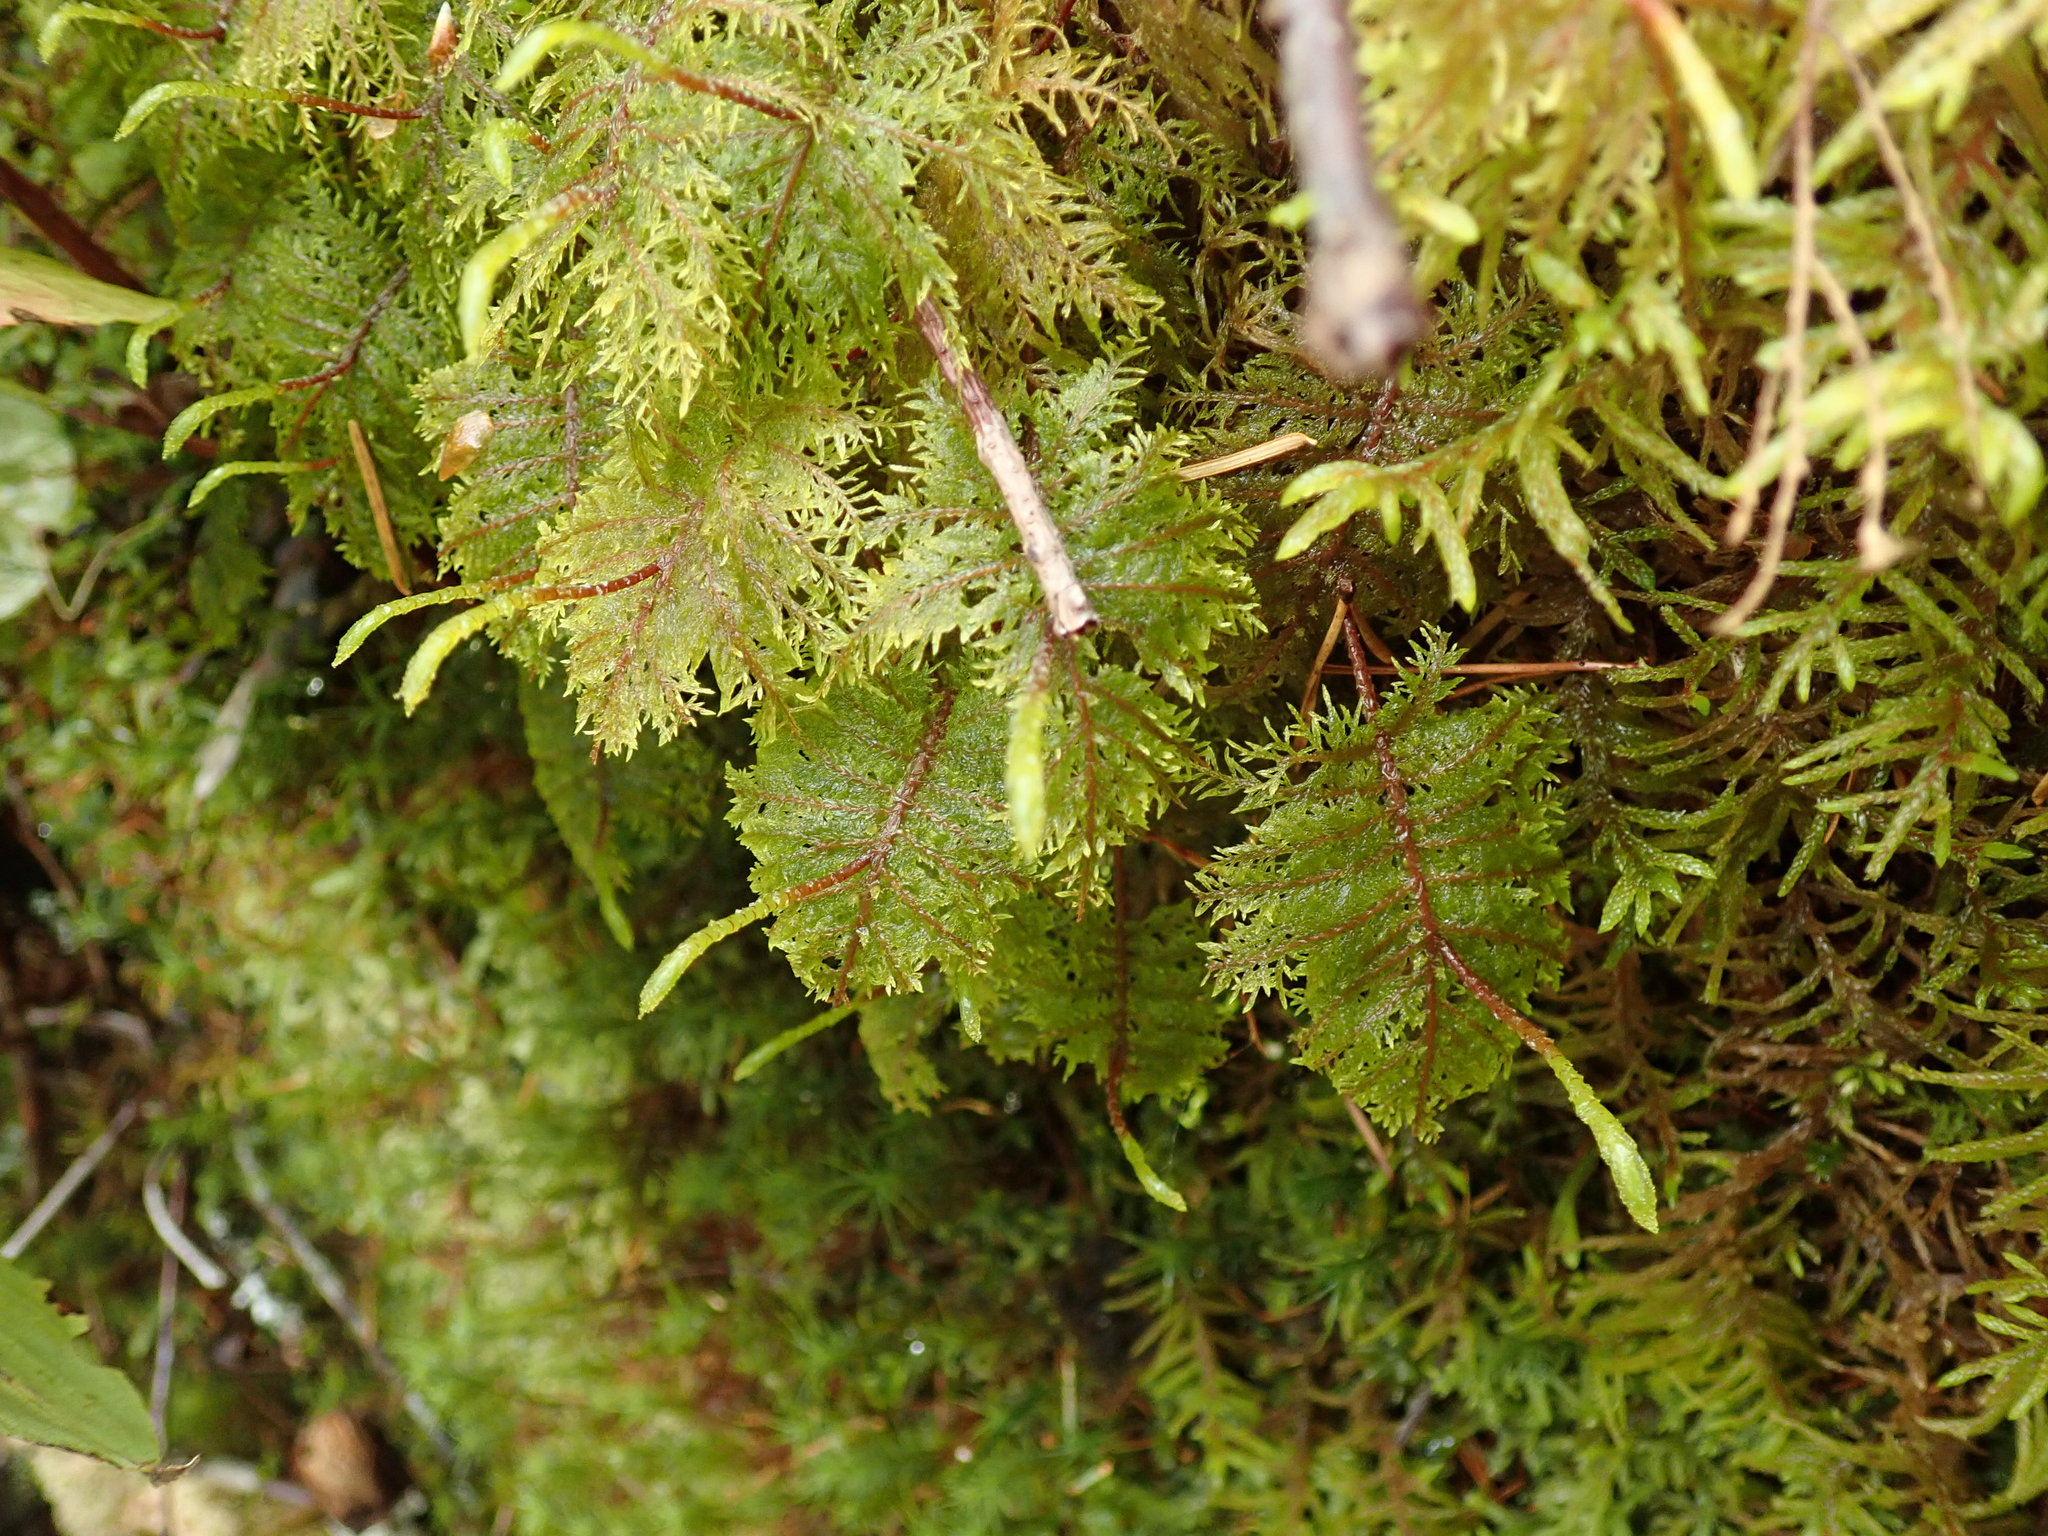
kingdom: Plantae
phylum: Bryophyta
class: Bryopsida
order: Hypnales
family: Hylocomiaceae
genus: Hylocomium
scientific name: Hylocomium splendens
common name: Stairstep moss
